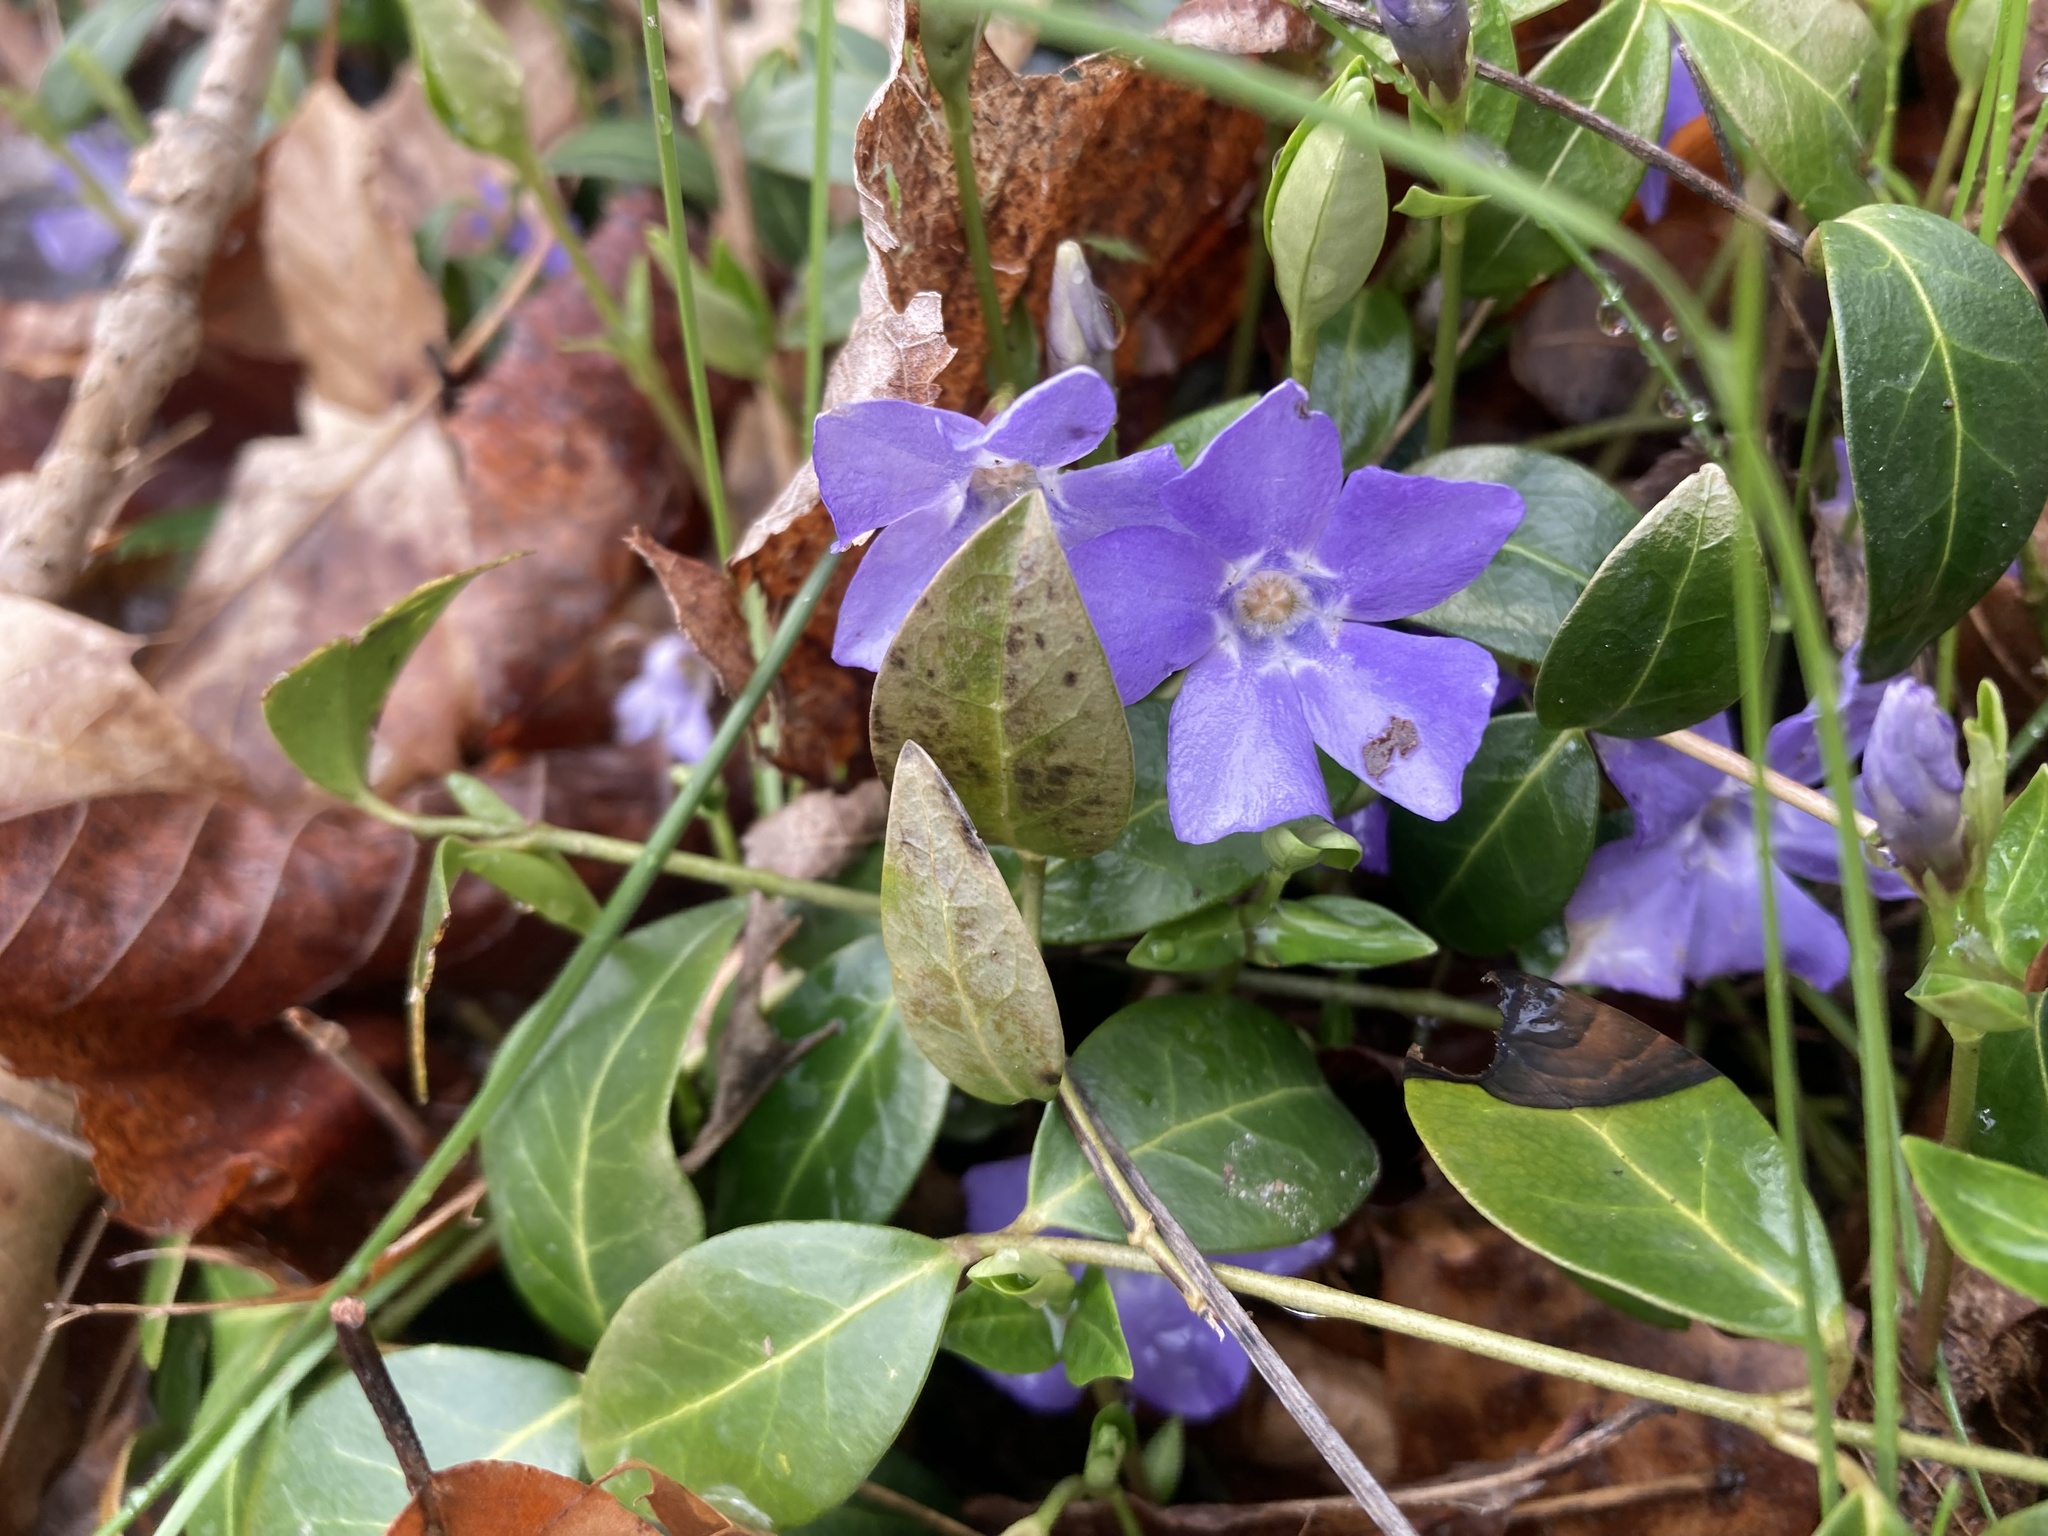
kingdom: Plantae
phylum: Tracheophyta
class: Magnoliopsida
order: Gentianales
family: Apocynaceae
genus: Vinca
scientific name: Vinca minor
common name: Lesser periwinkle
